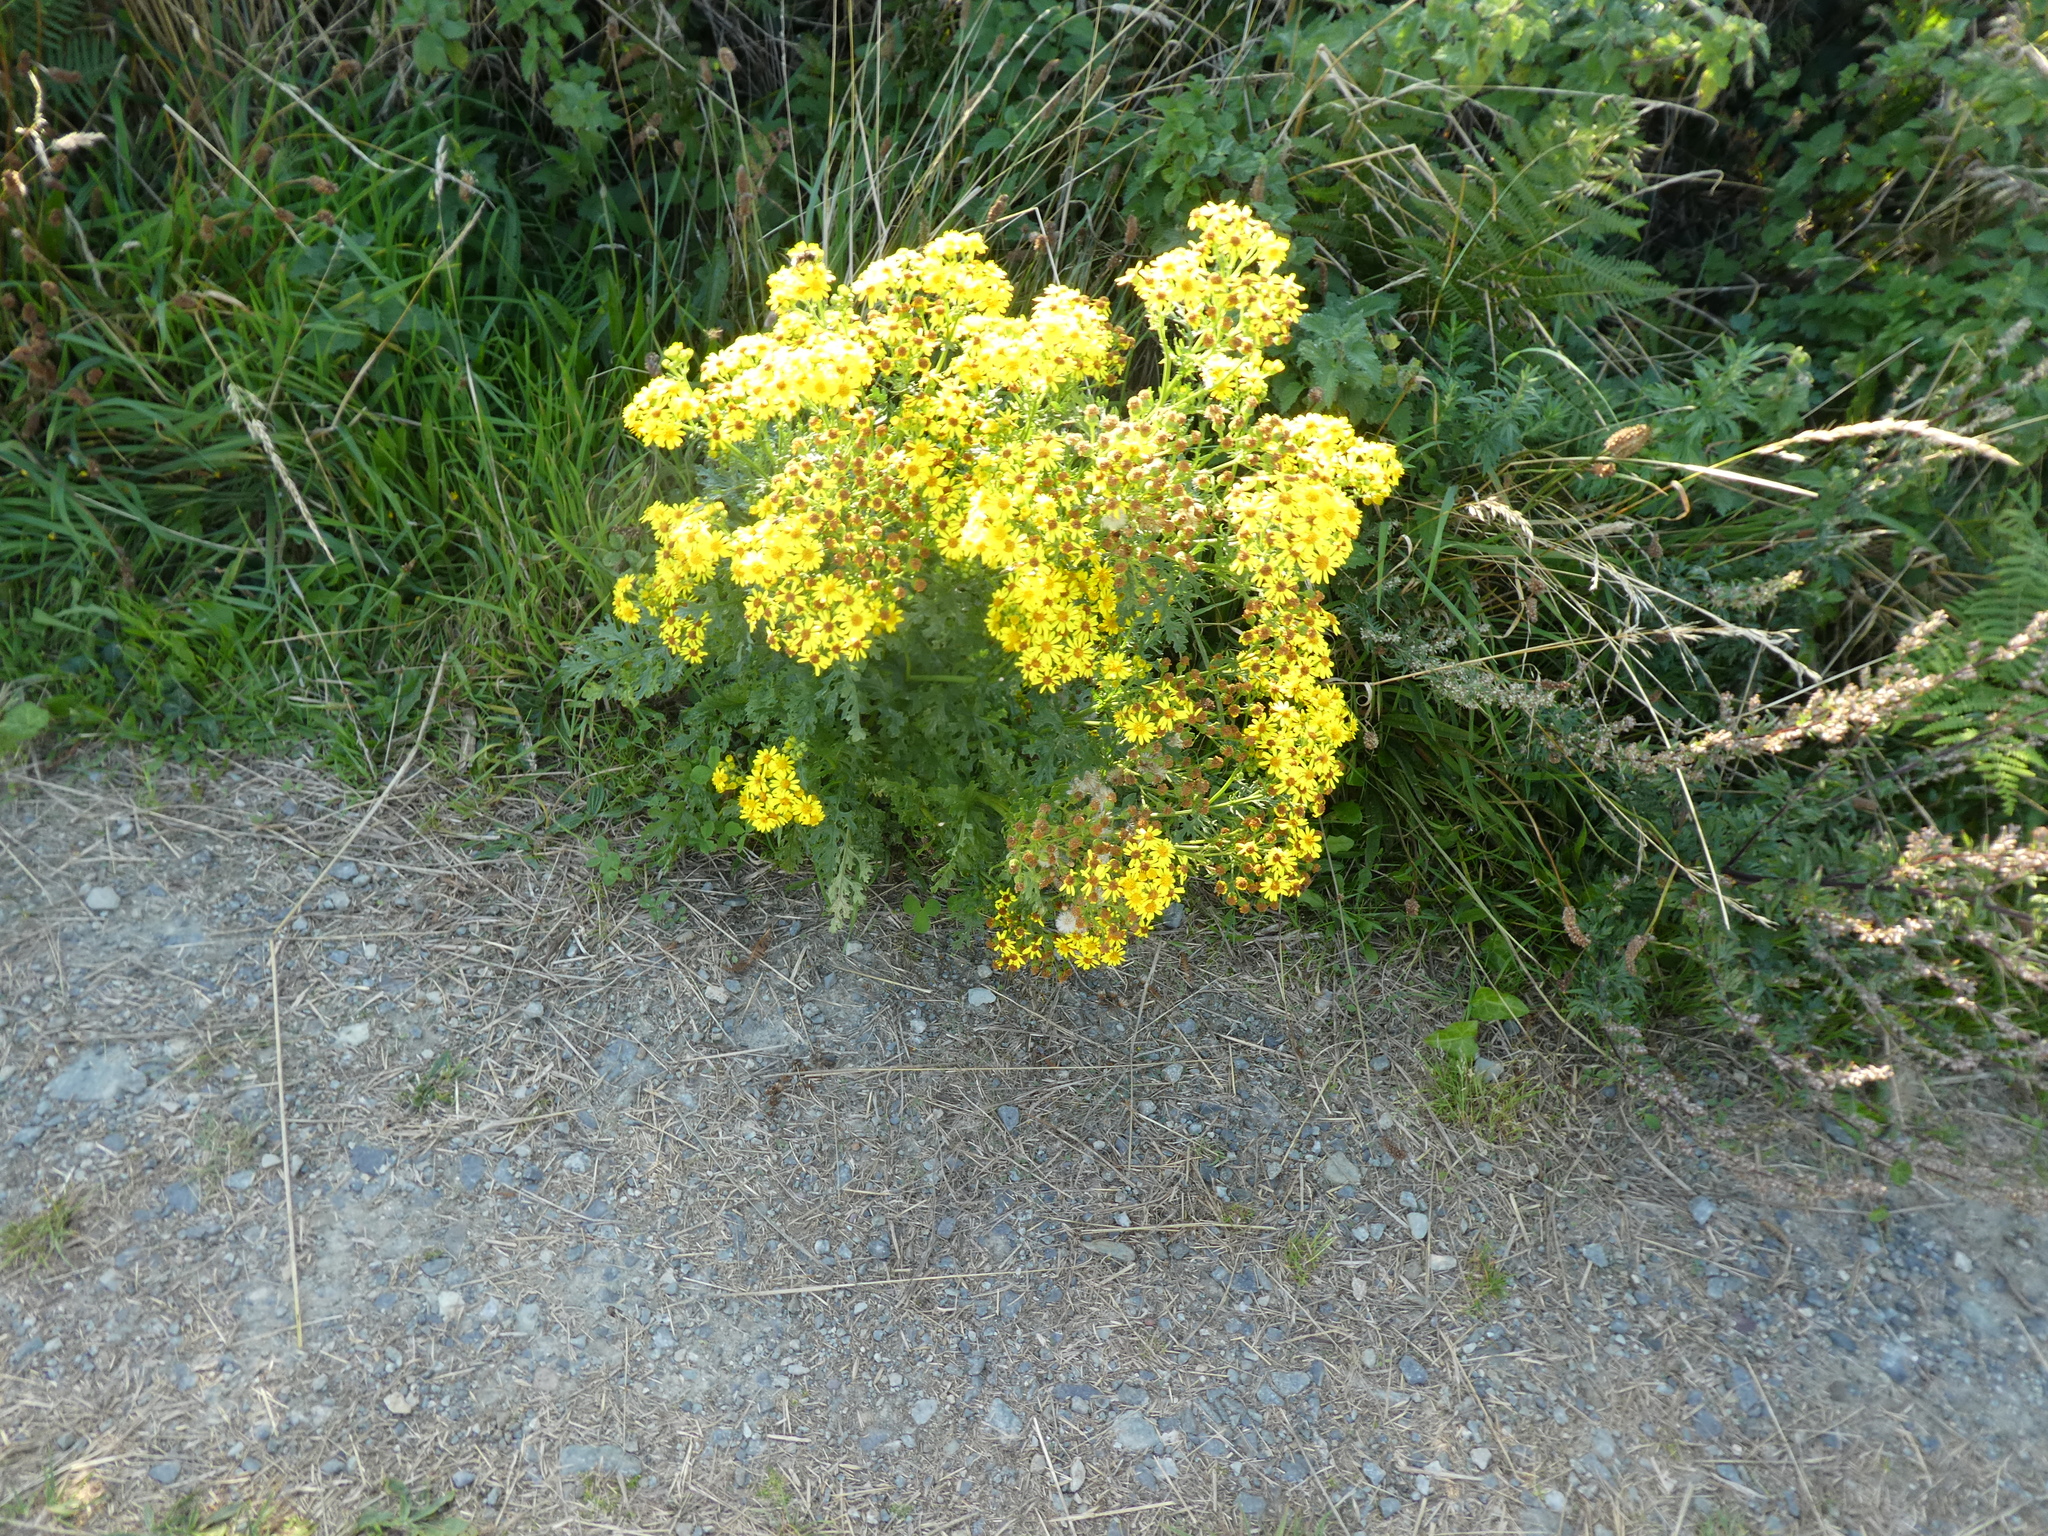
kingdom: Plantae
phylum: Tracheophyta
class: Magnoliopsida
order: Asterales
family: Asteraceae
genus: Jacobaea
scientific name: Jacobaea vulgaris
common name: Stinking willie
